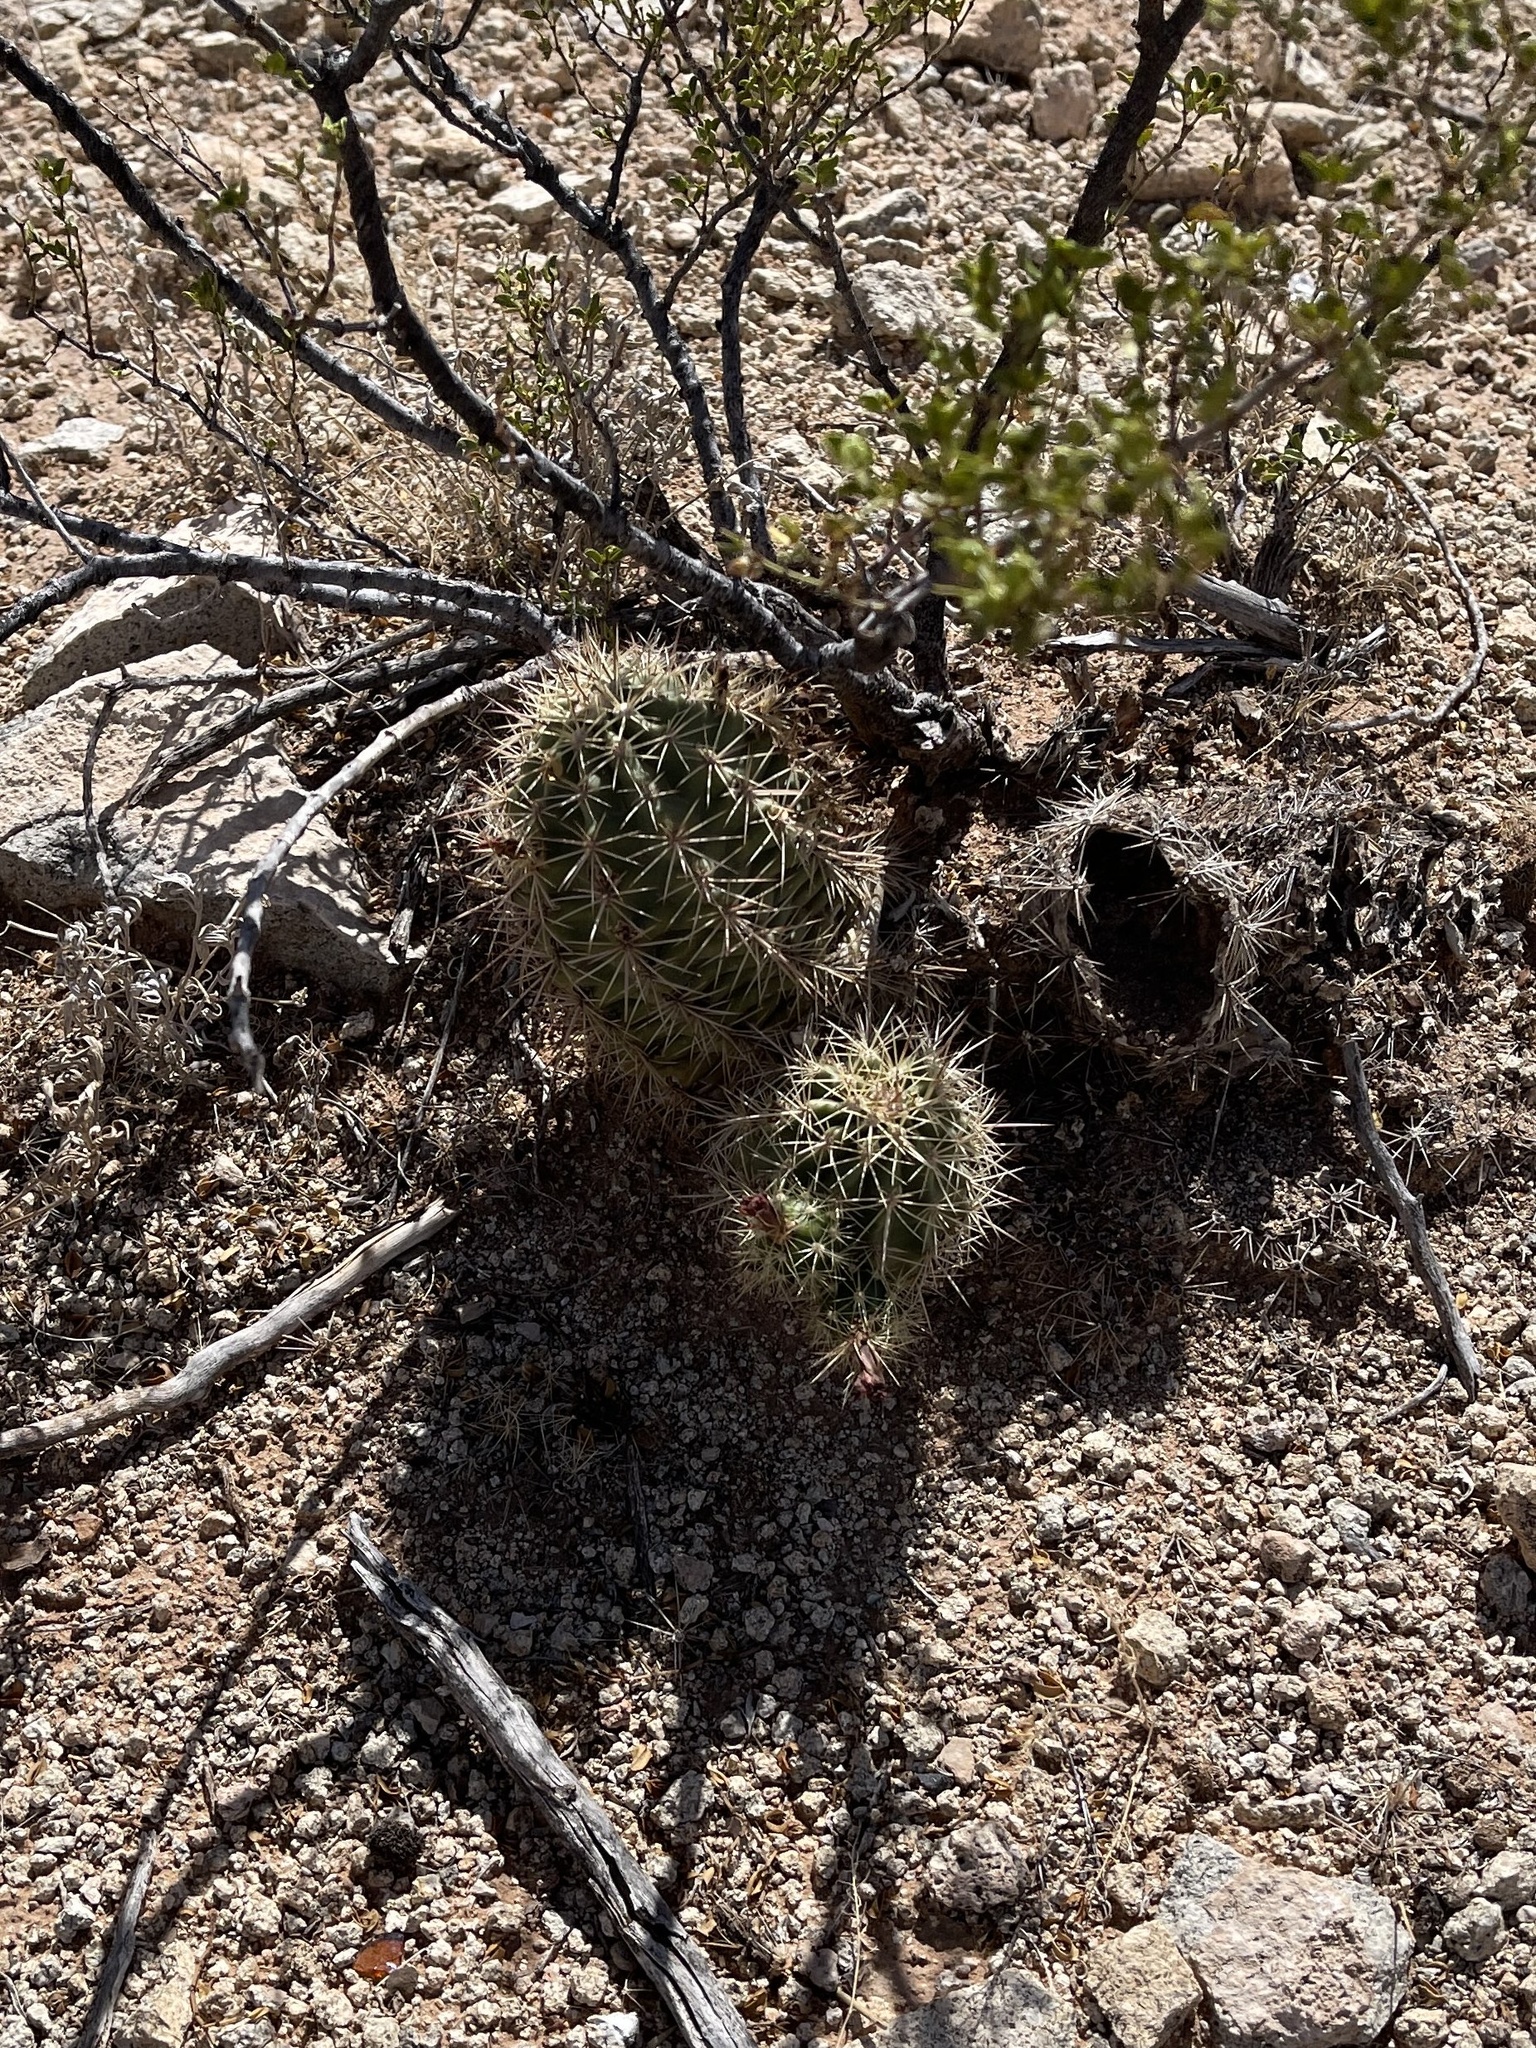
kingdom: Plantae
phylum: Tracheophyta
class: Magnoliopsida
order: Caryophyllales
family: Cactaceae
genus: Echinocereus
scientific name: Echinocereus coccineus
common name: Scarlet hedgehog cactus
